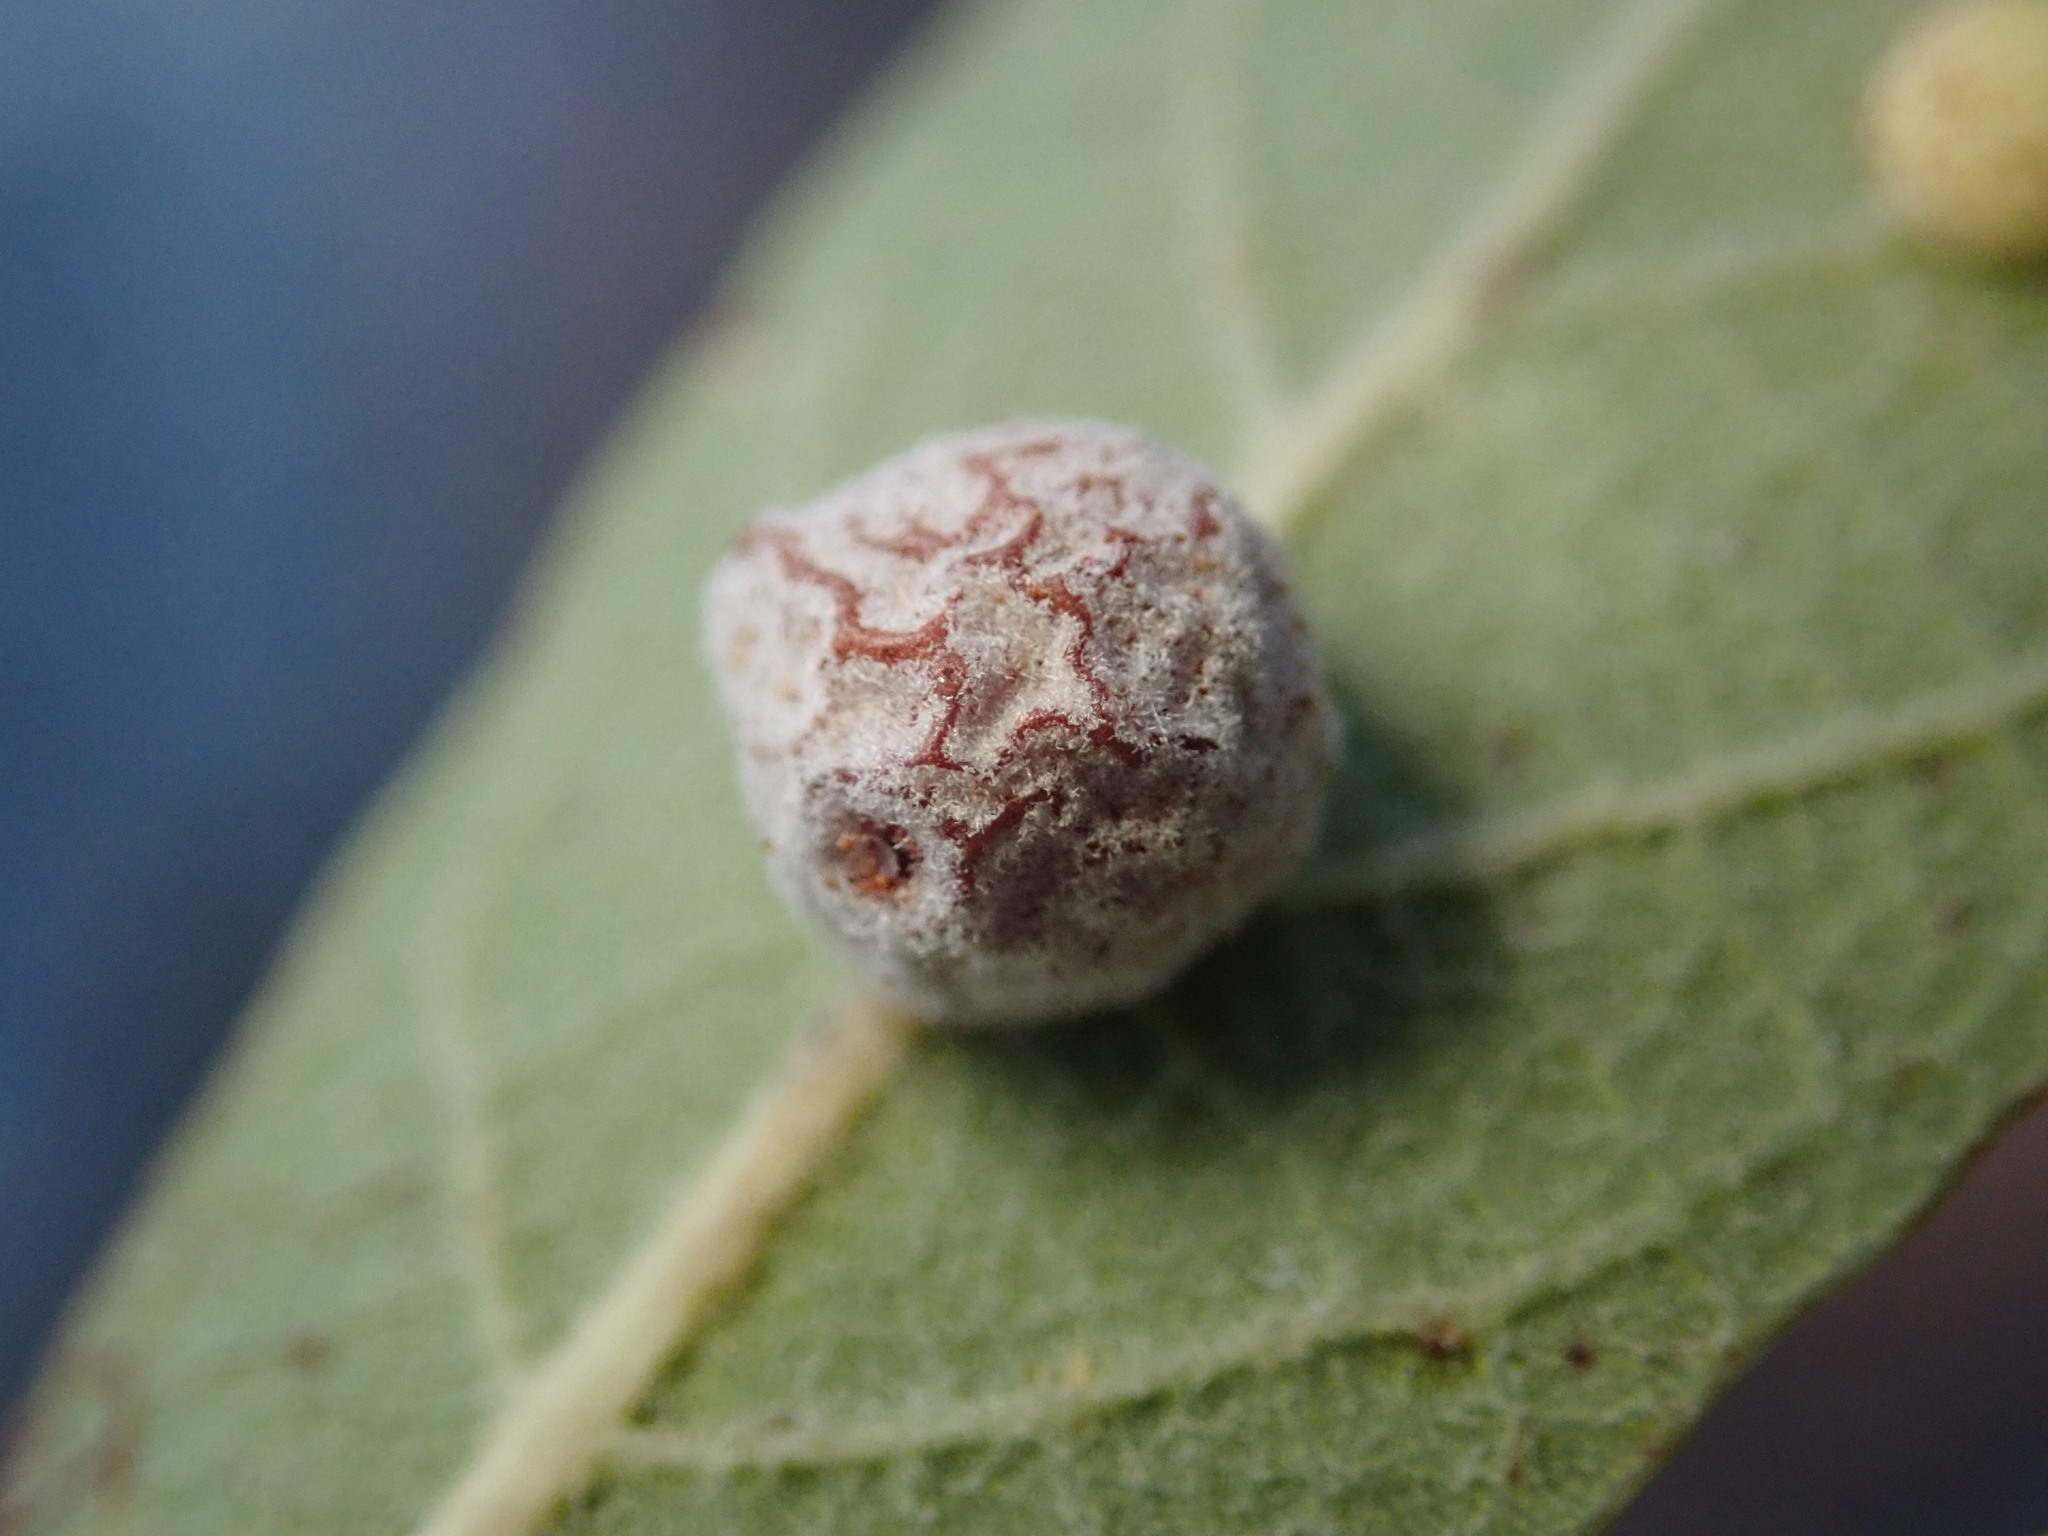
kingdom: Animalia
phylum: Arthropoda
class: Insecta
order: Hymenoptera
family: Cynipidae
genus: Andricus
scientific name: Andricus aries
